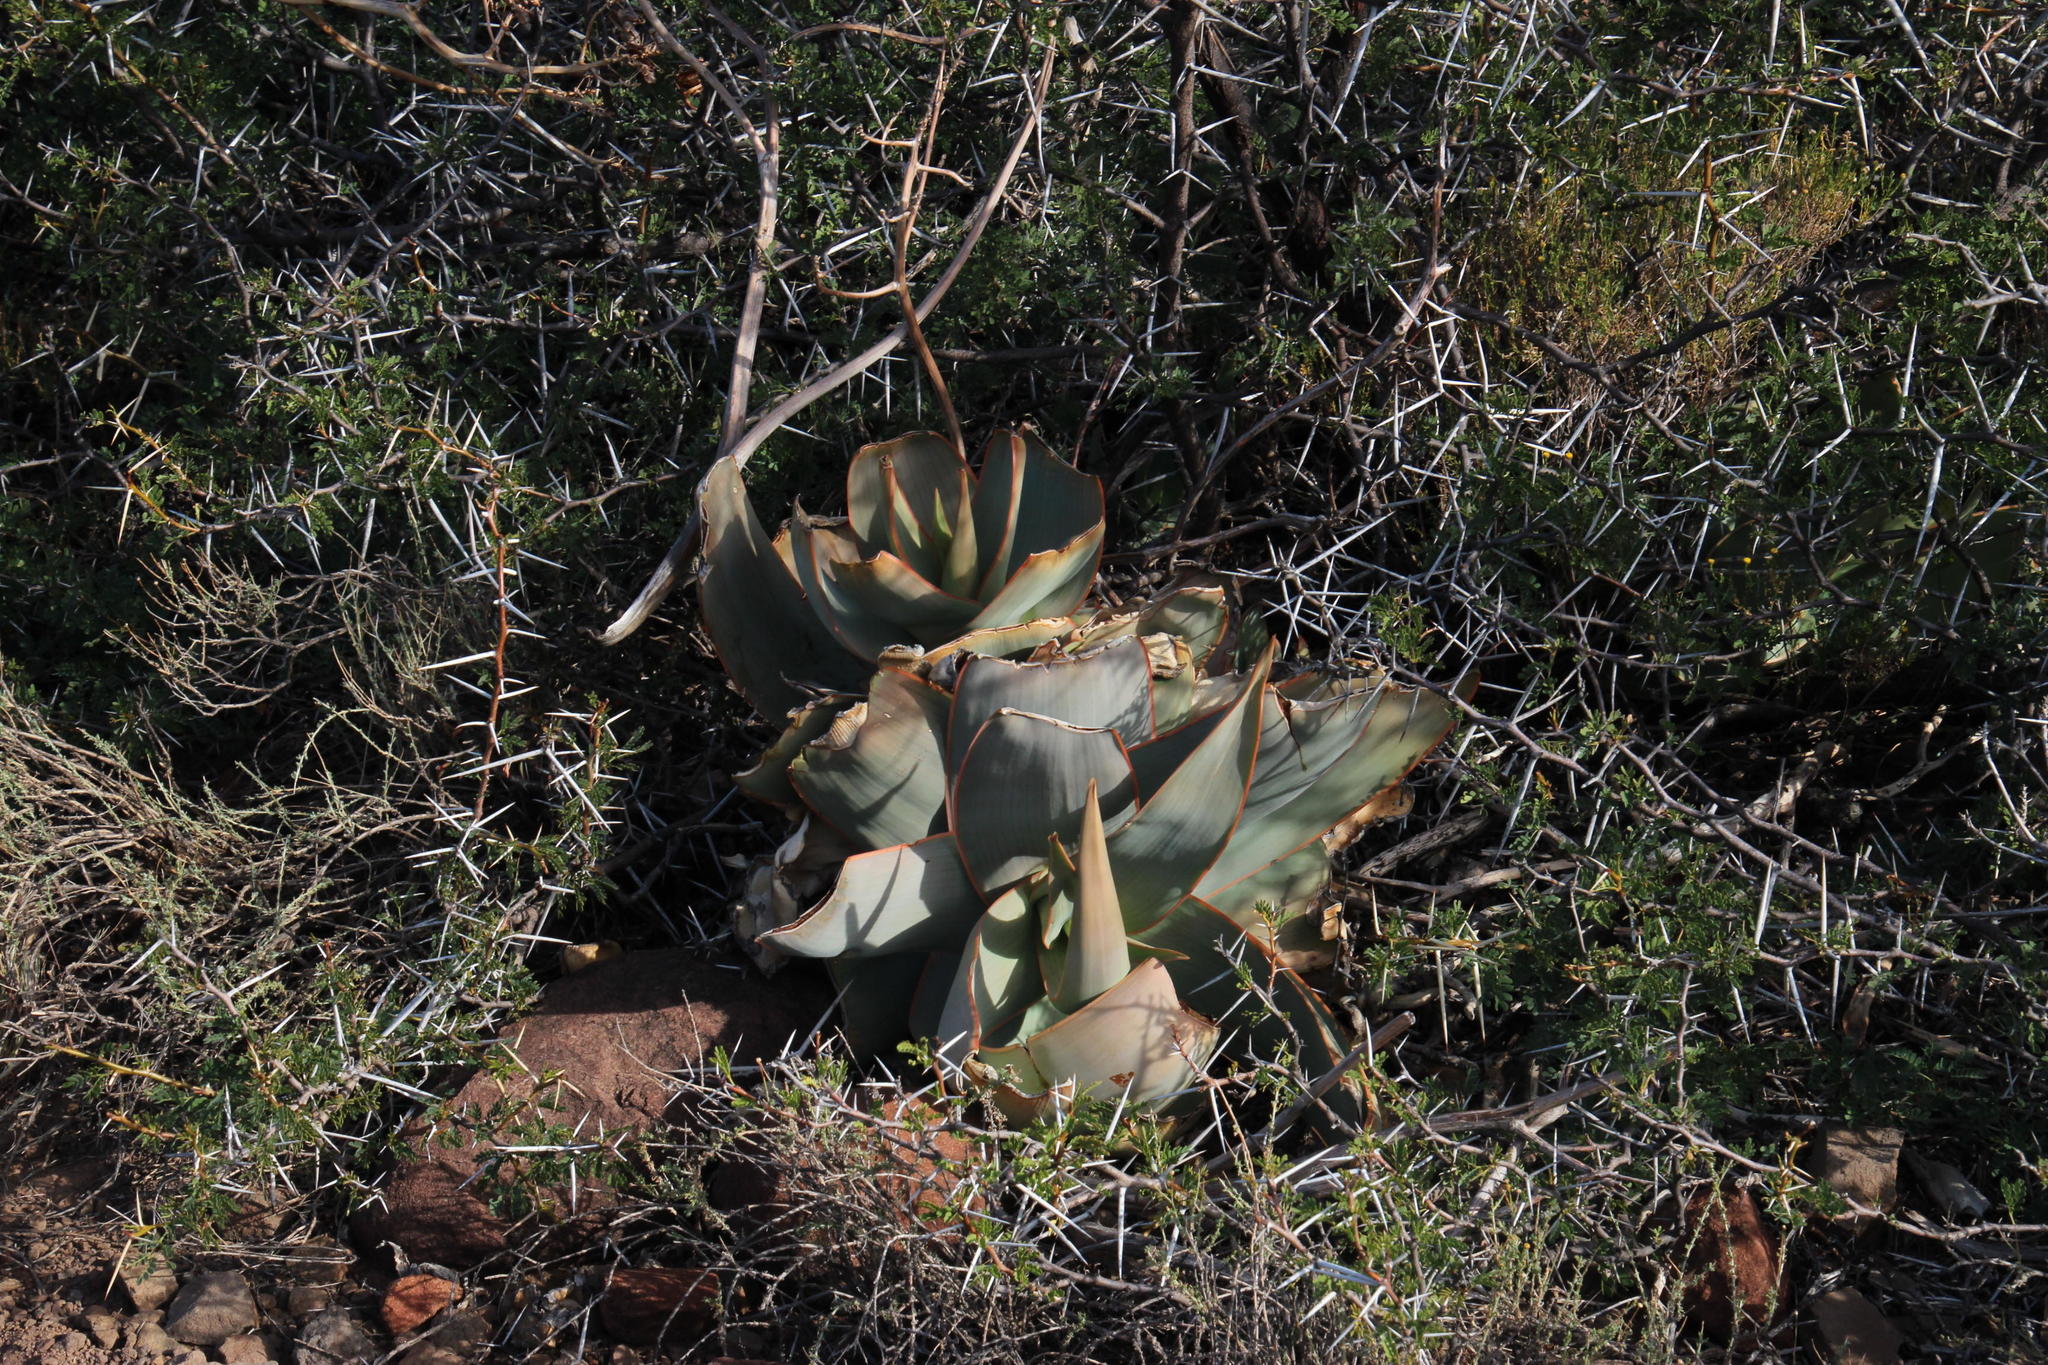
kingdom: Plantae
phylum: Tracheophyta
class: Liliopsida
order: Asparagales
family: Asphodelaceae
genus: Aloe
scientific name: Aloe striata
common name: Coral aloe
